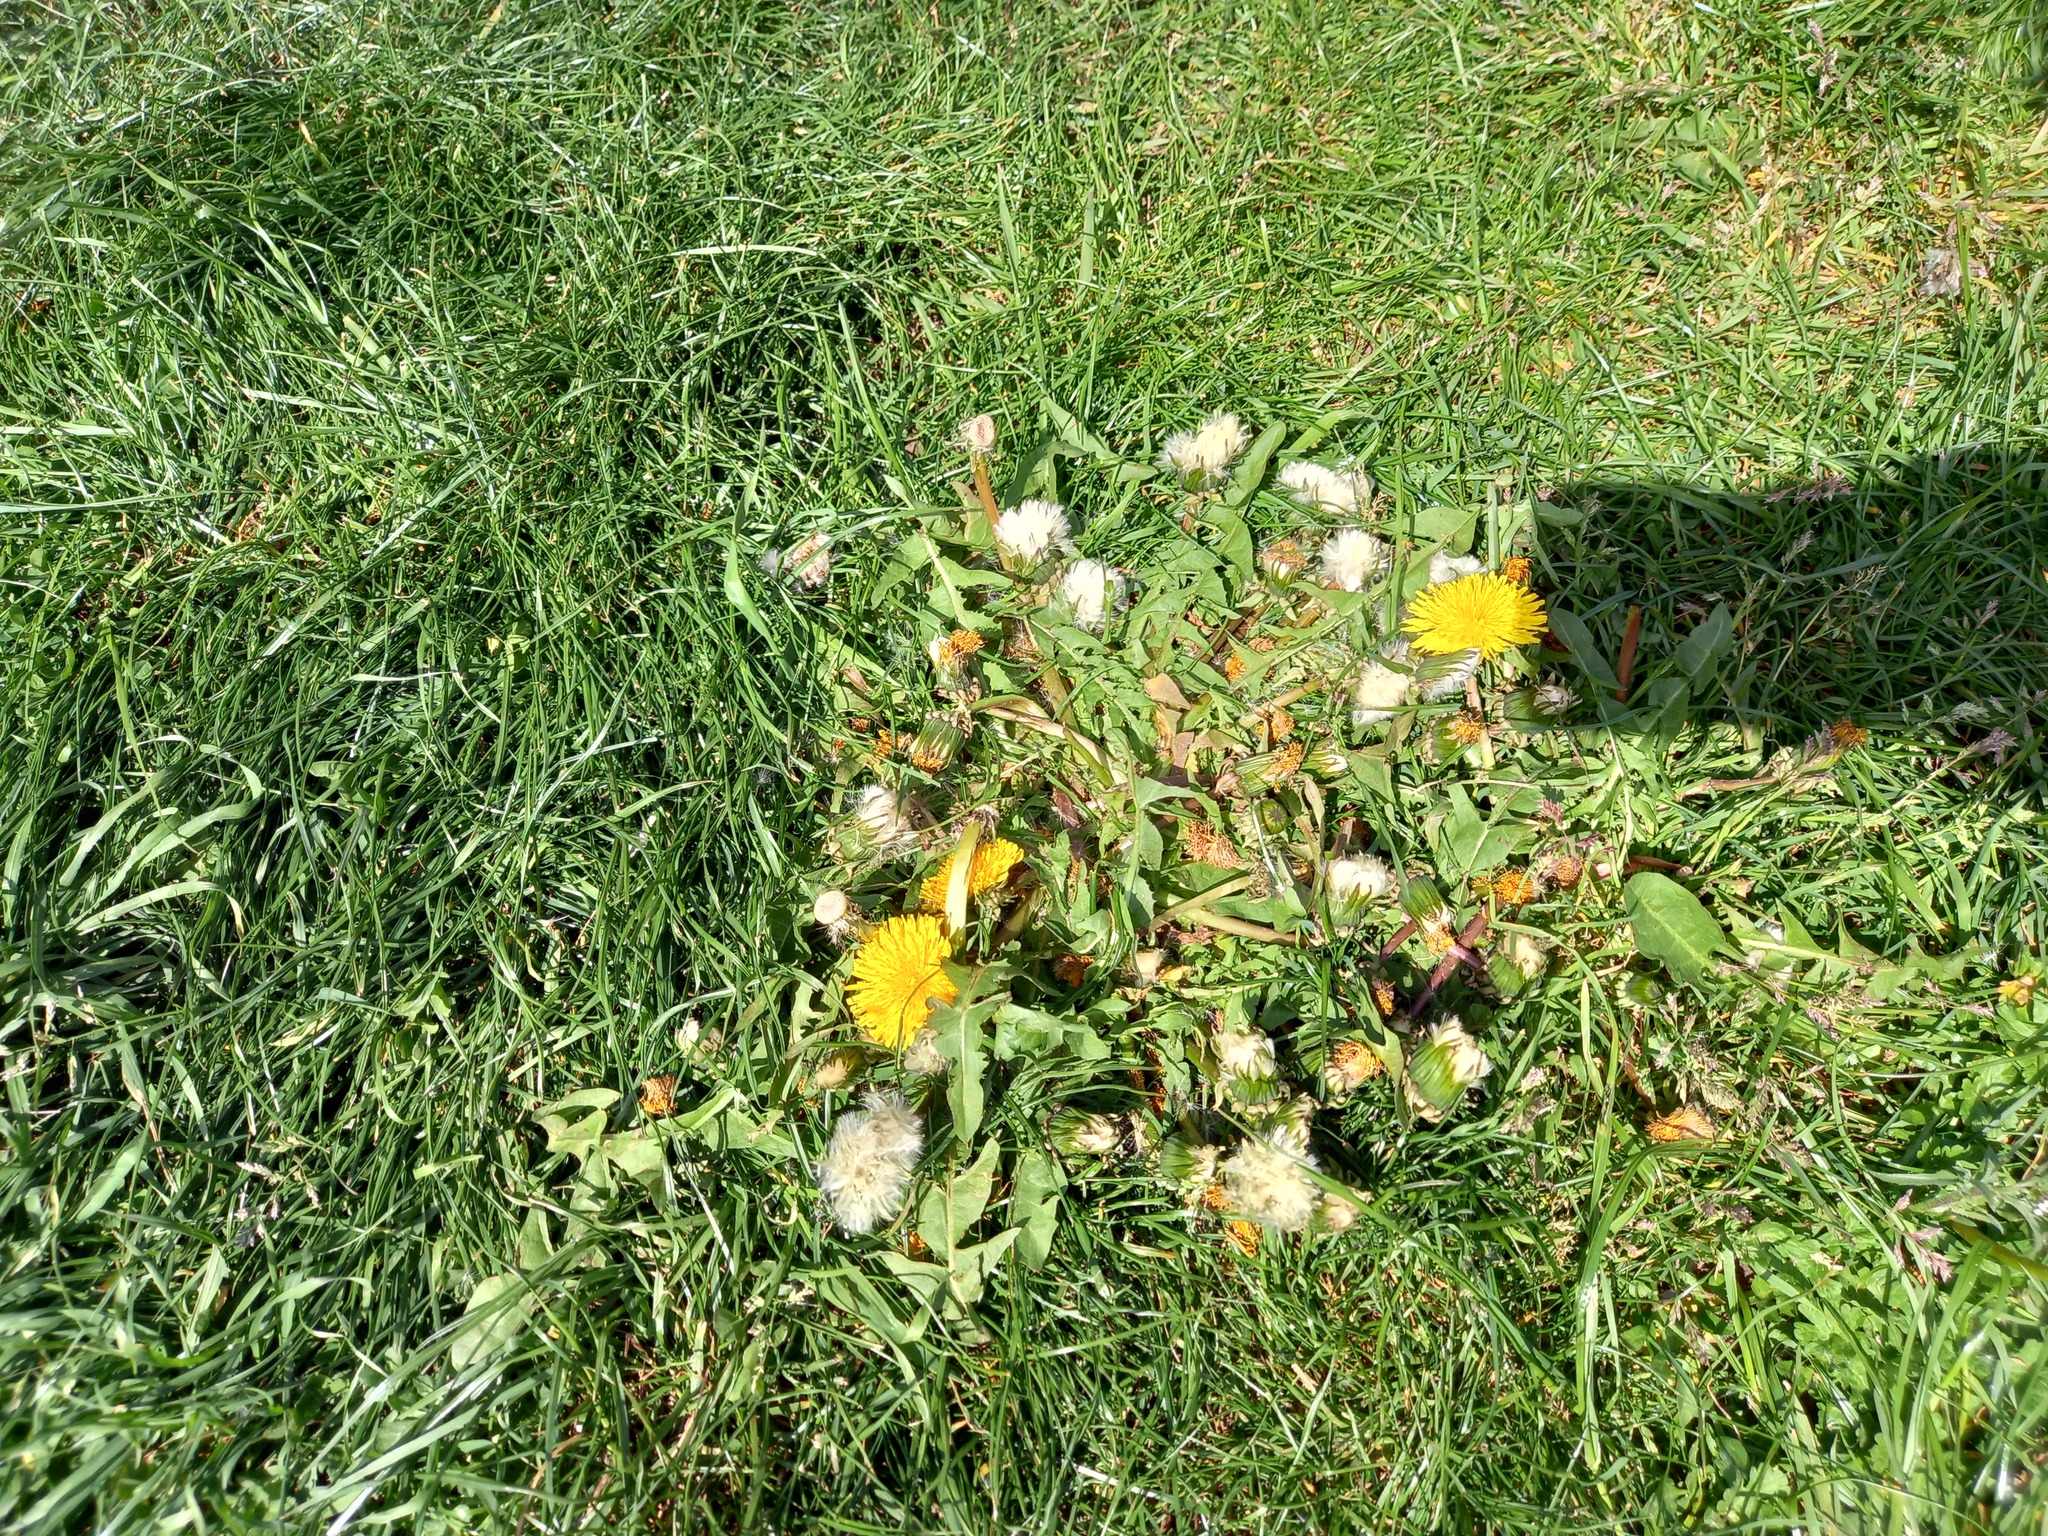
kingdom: Plantae
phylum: Tracheophyta
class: Magnoliopsida
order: Asterales
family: Asteraceae
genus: Taraxacum
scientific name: Taraxacum officinale
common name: Common dandelion
